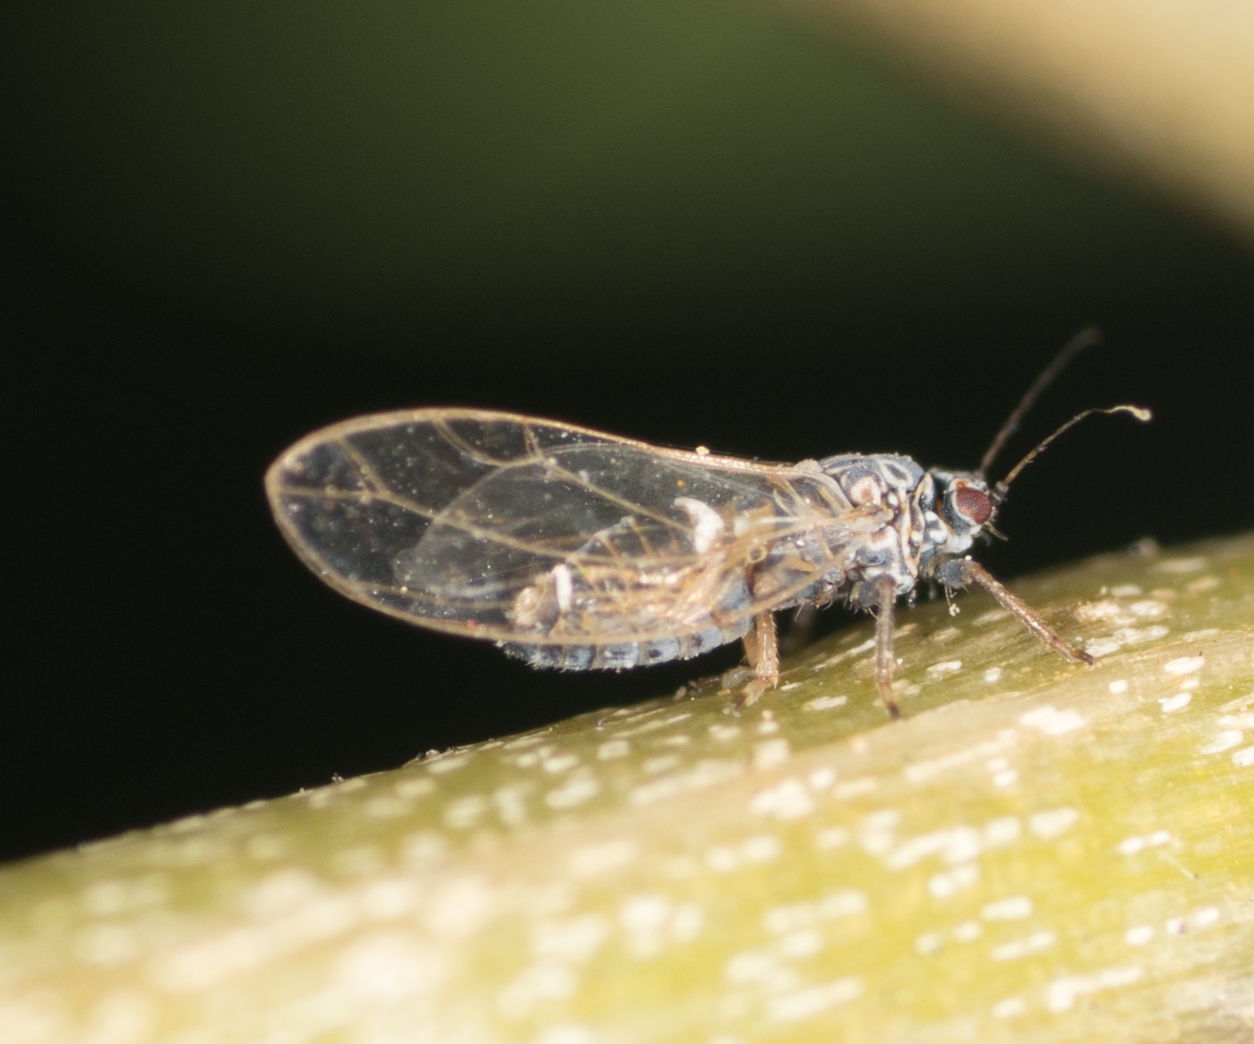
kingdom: Animalia
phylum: Arthropoda
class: Insecta
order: Hemiptera
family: Triozidae
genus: Bactericera
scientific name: Bactericera cockerelli
